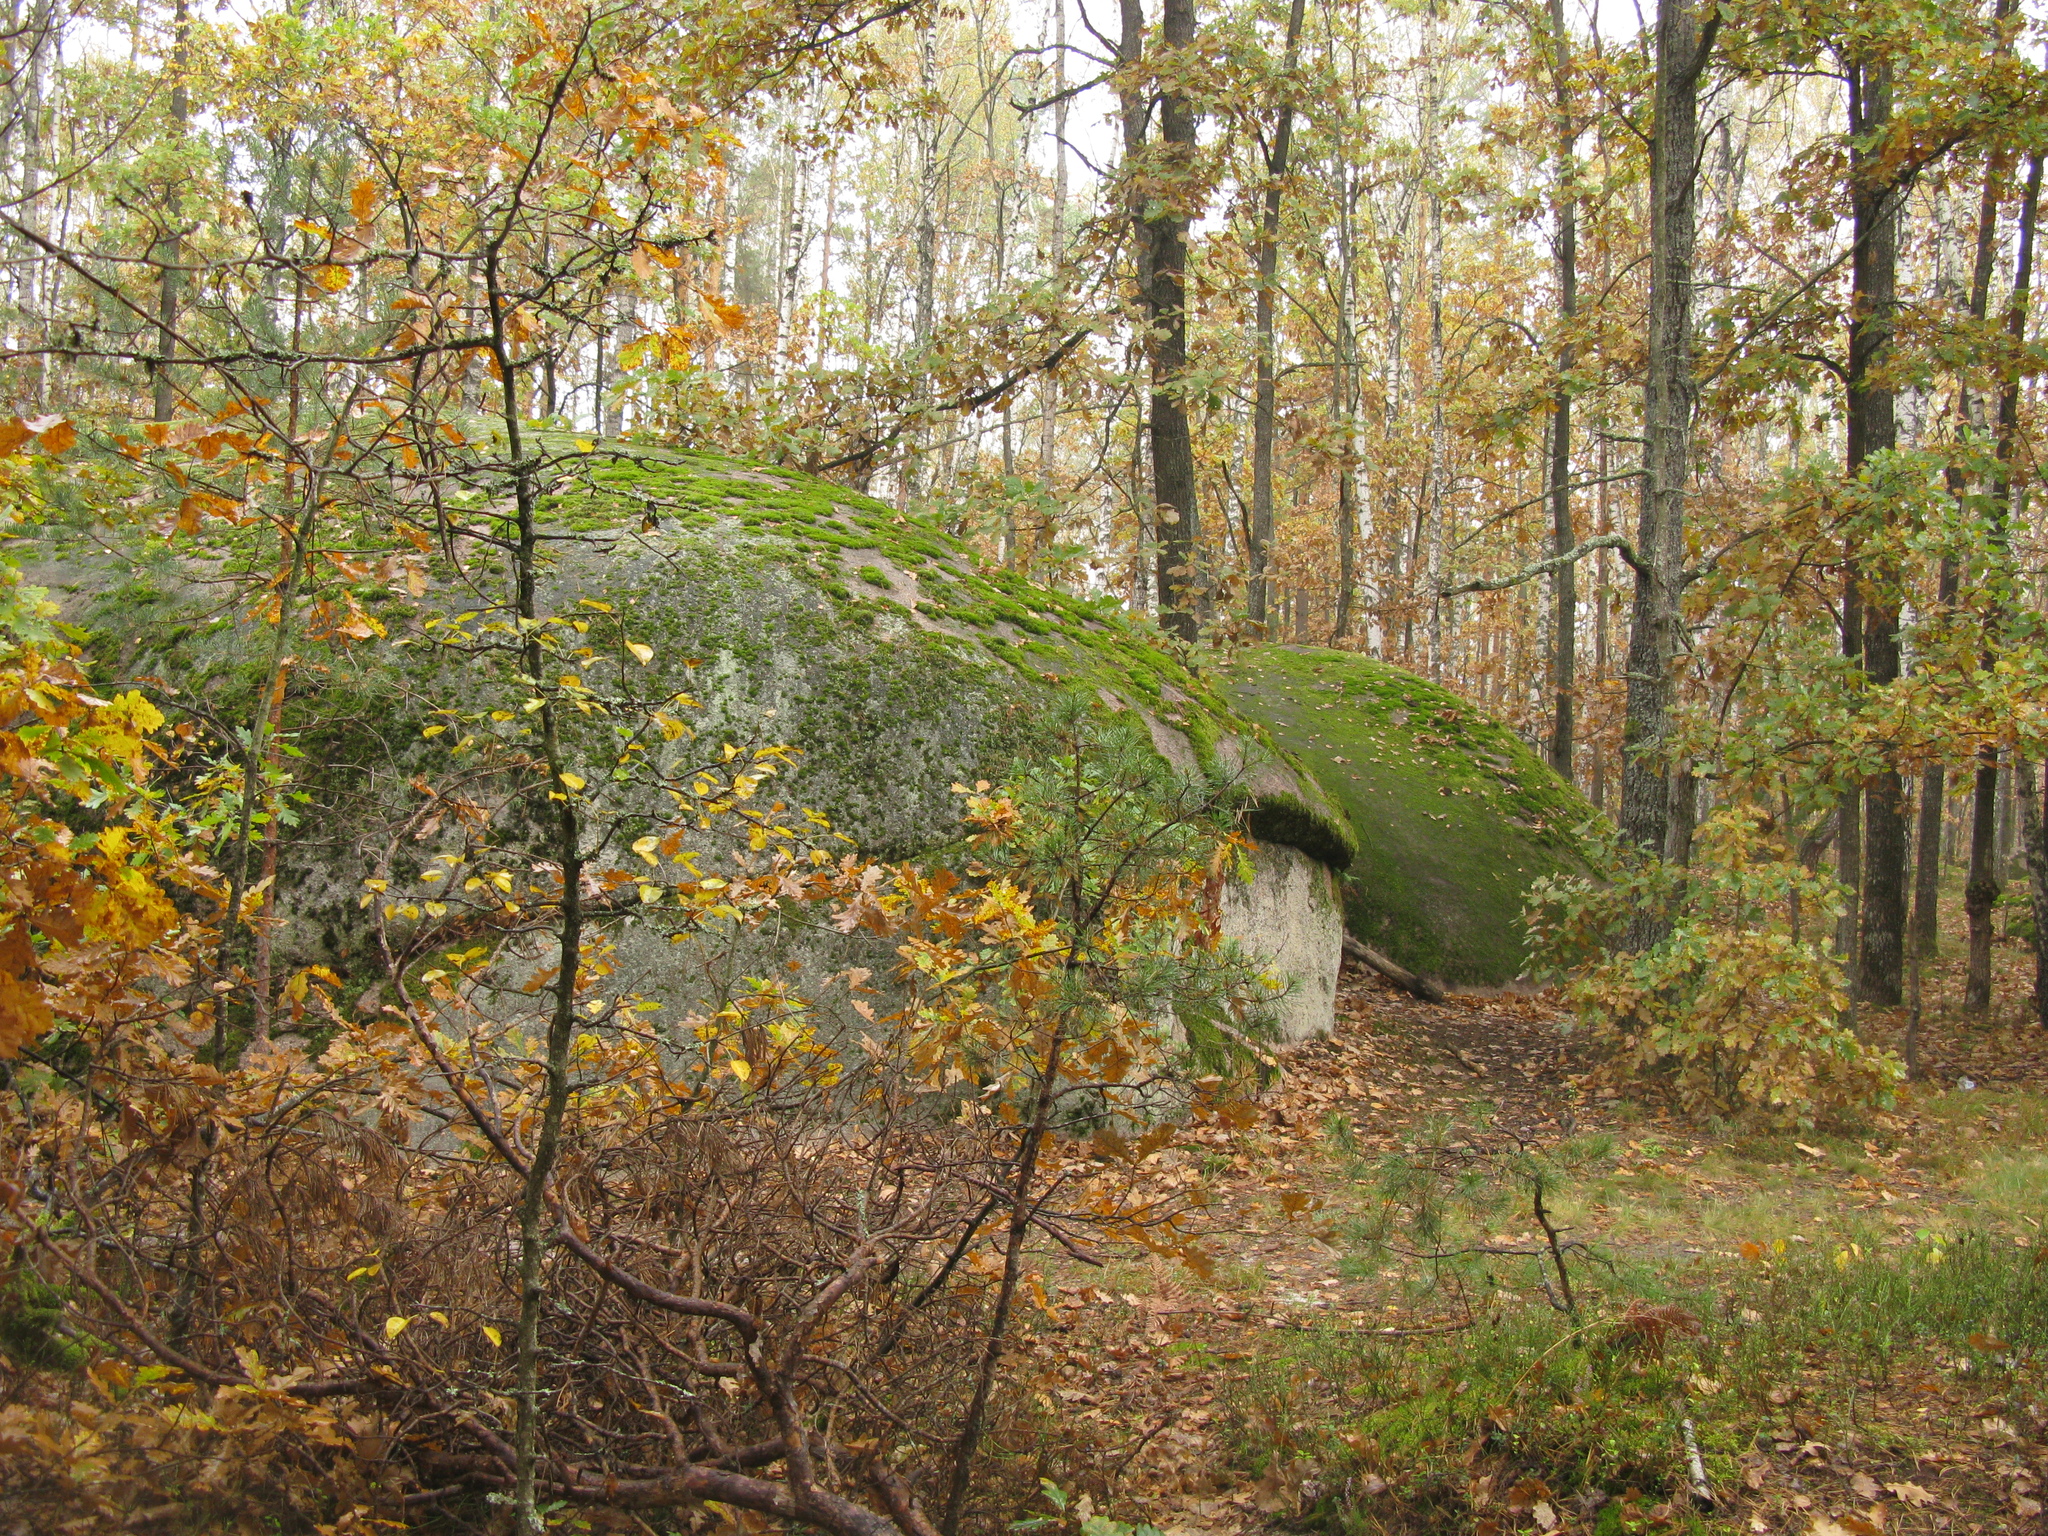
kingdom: Plantae
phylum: Tracheophyta
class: Magnoliopsida
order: Fagales
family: Fagaceae
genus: Quercus
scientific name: Quercus robur
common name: Pedunculate oak
